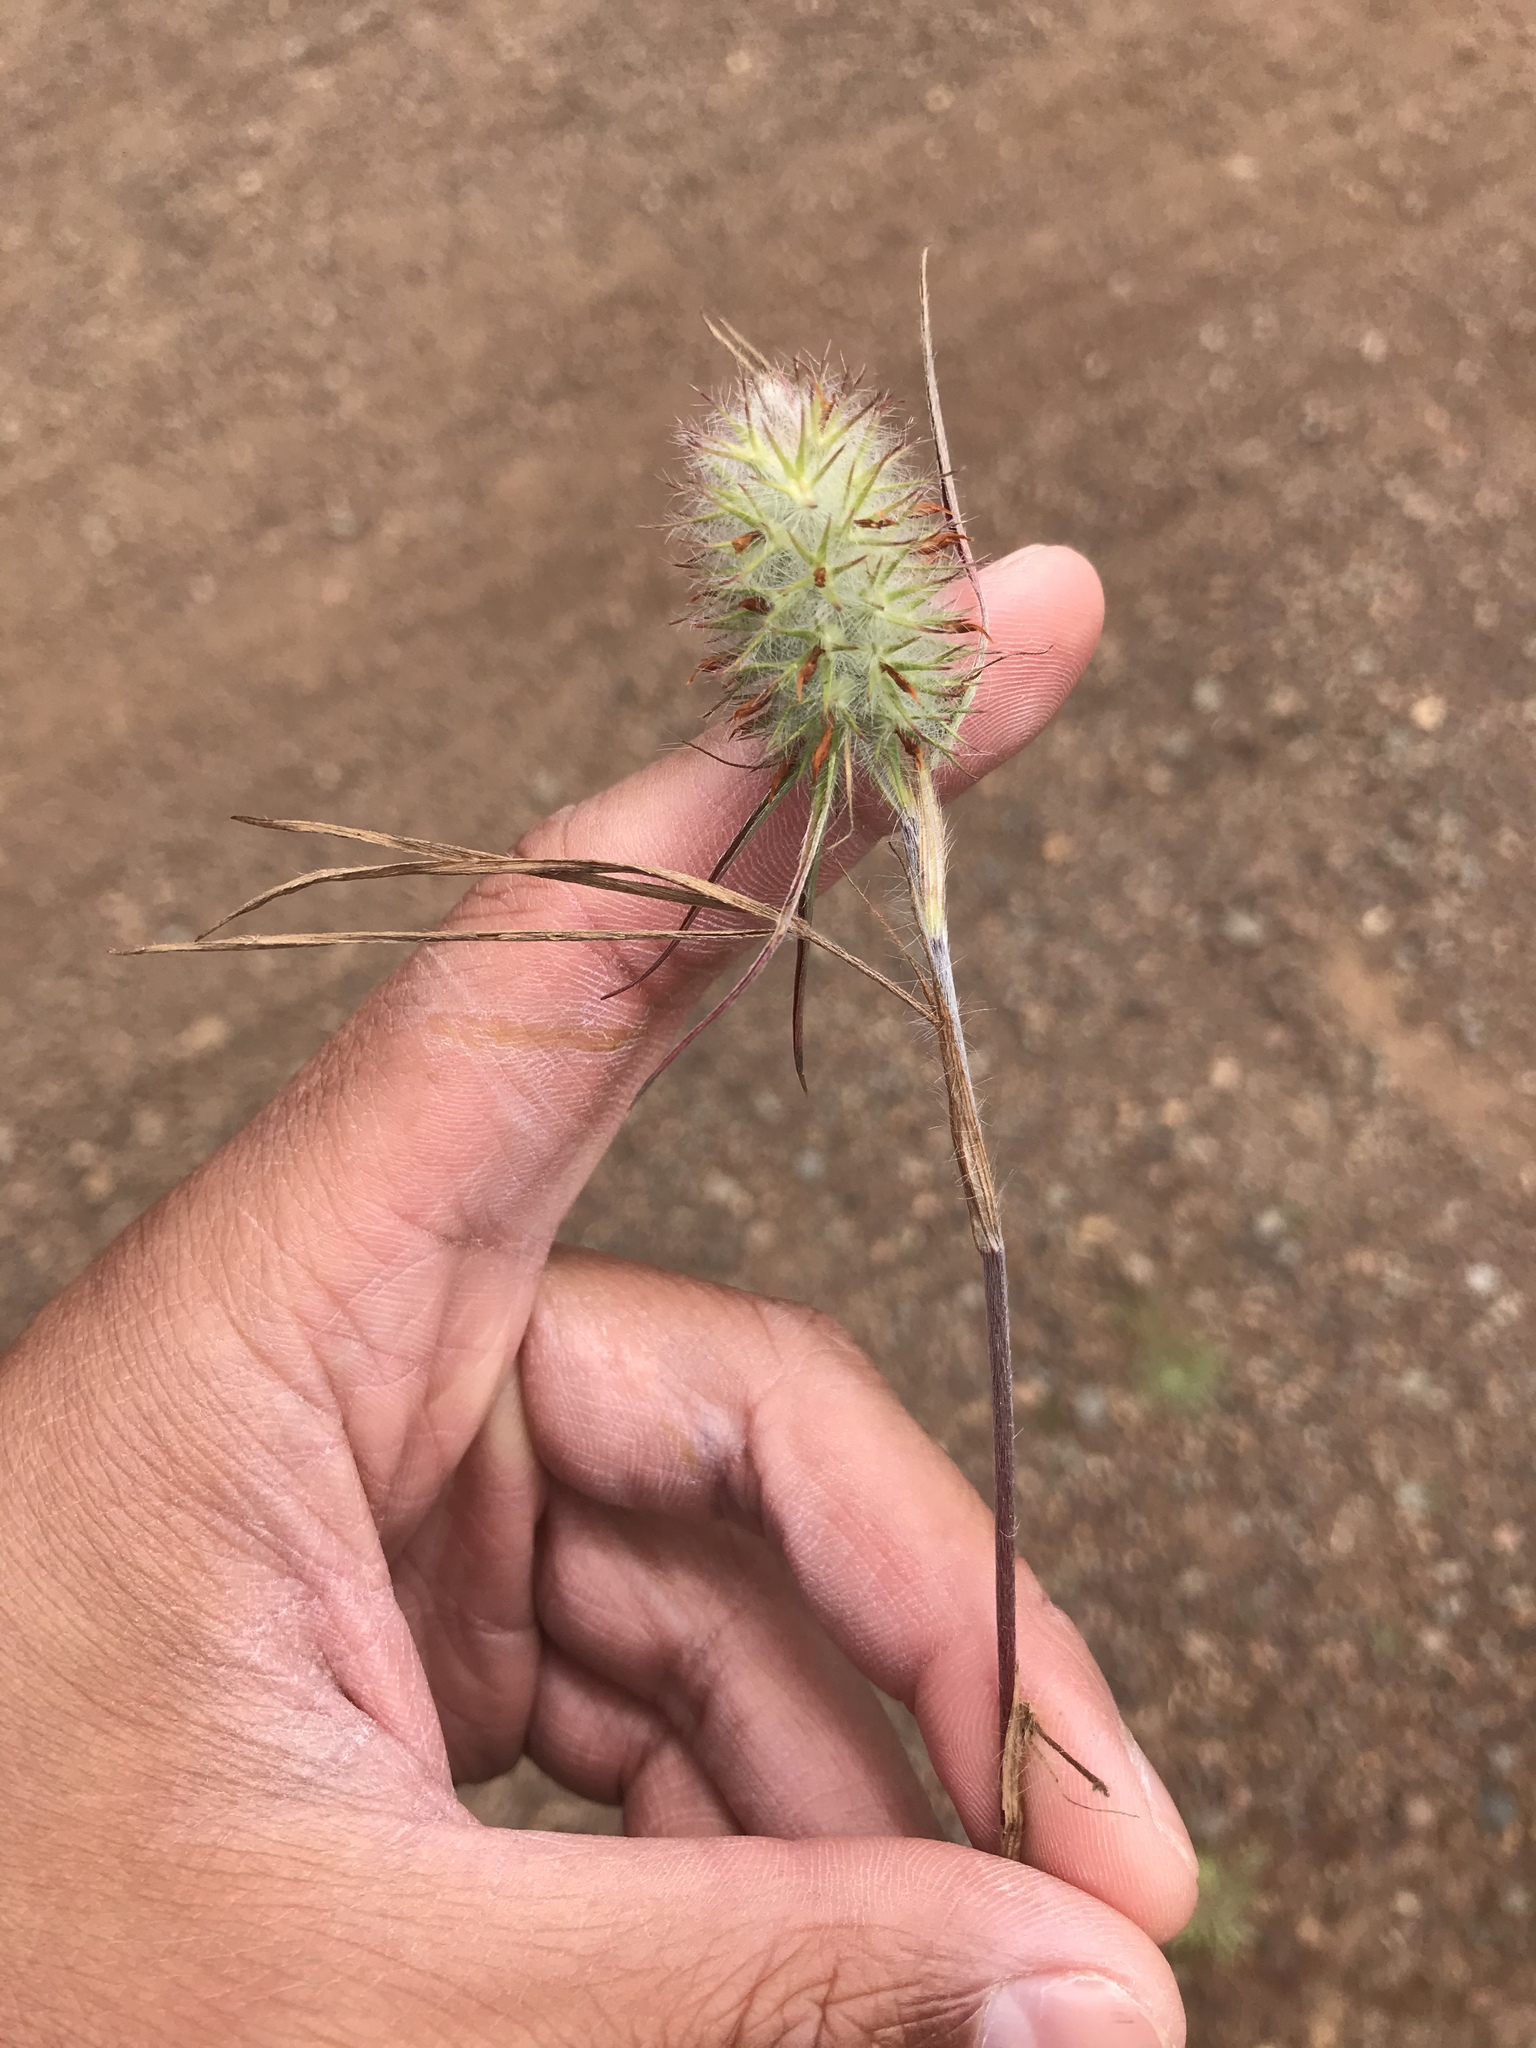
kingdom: Plantae
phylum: Tracheophyta
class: Magnoliopsida
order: Fabales
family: Fabaceae
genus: Trifolium
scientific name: Trifolium angustifolium
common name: Narrow clover
